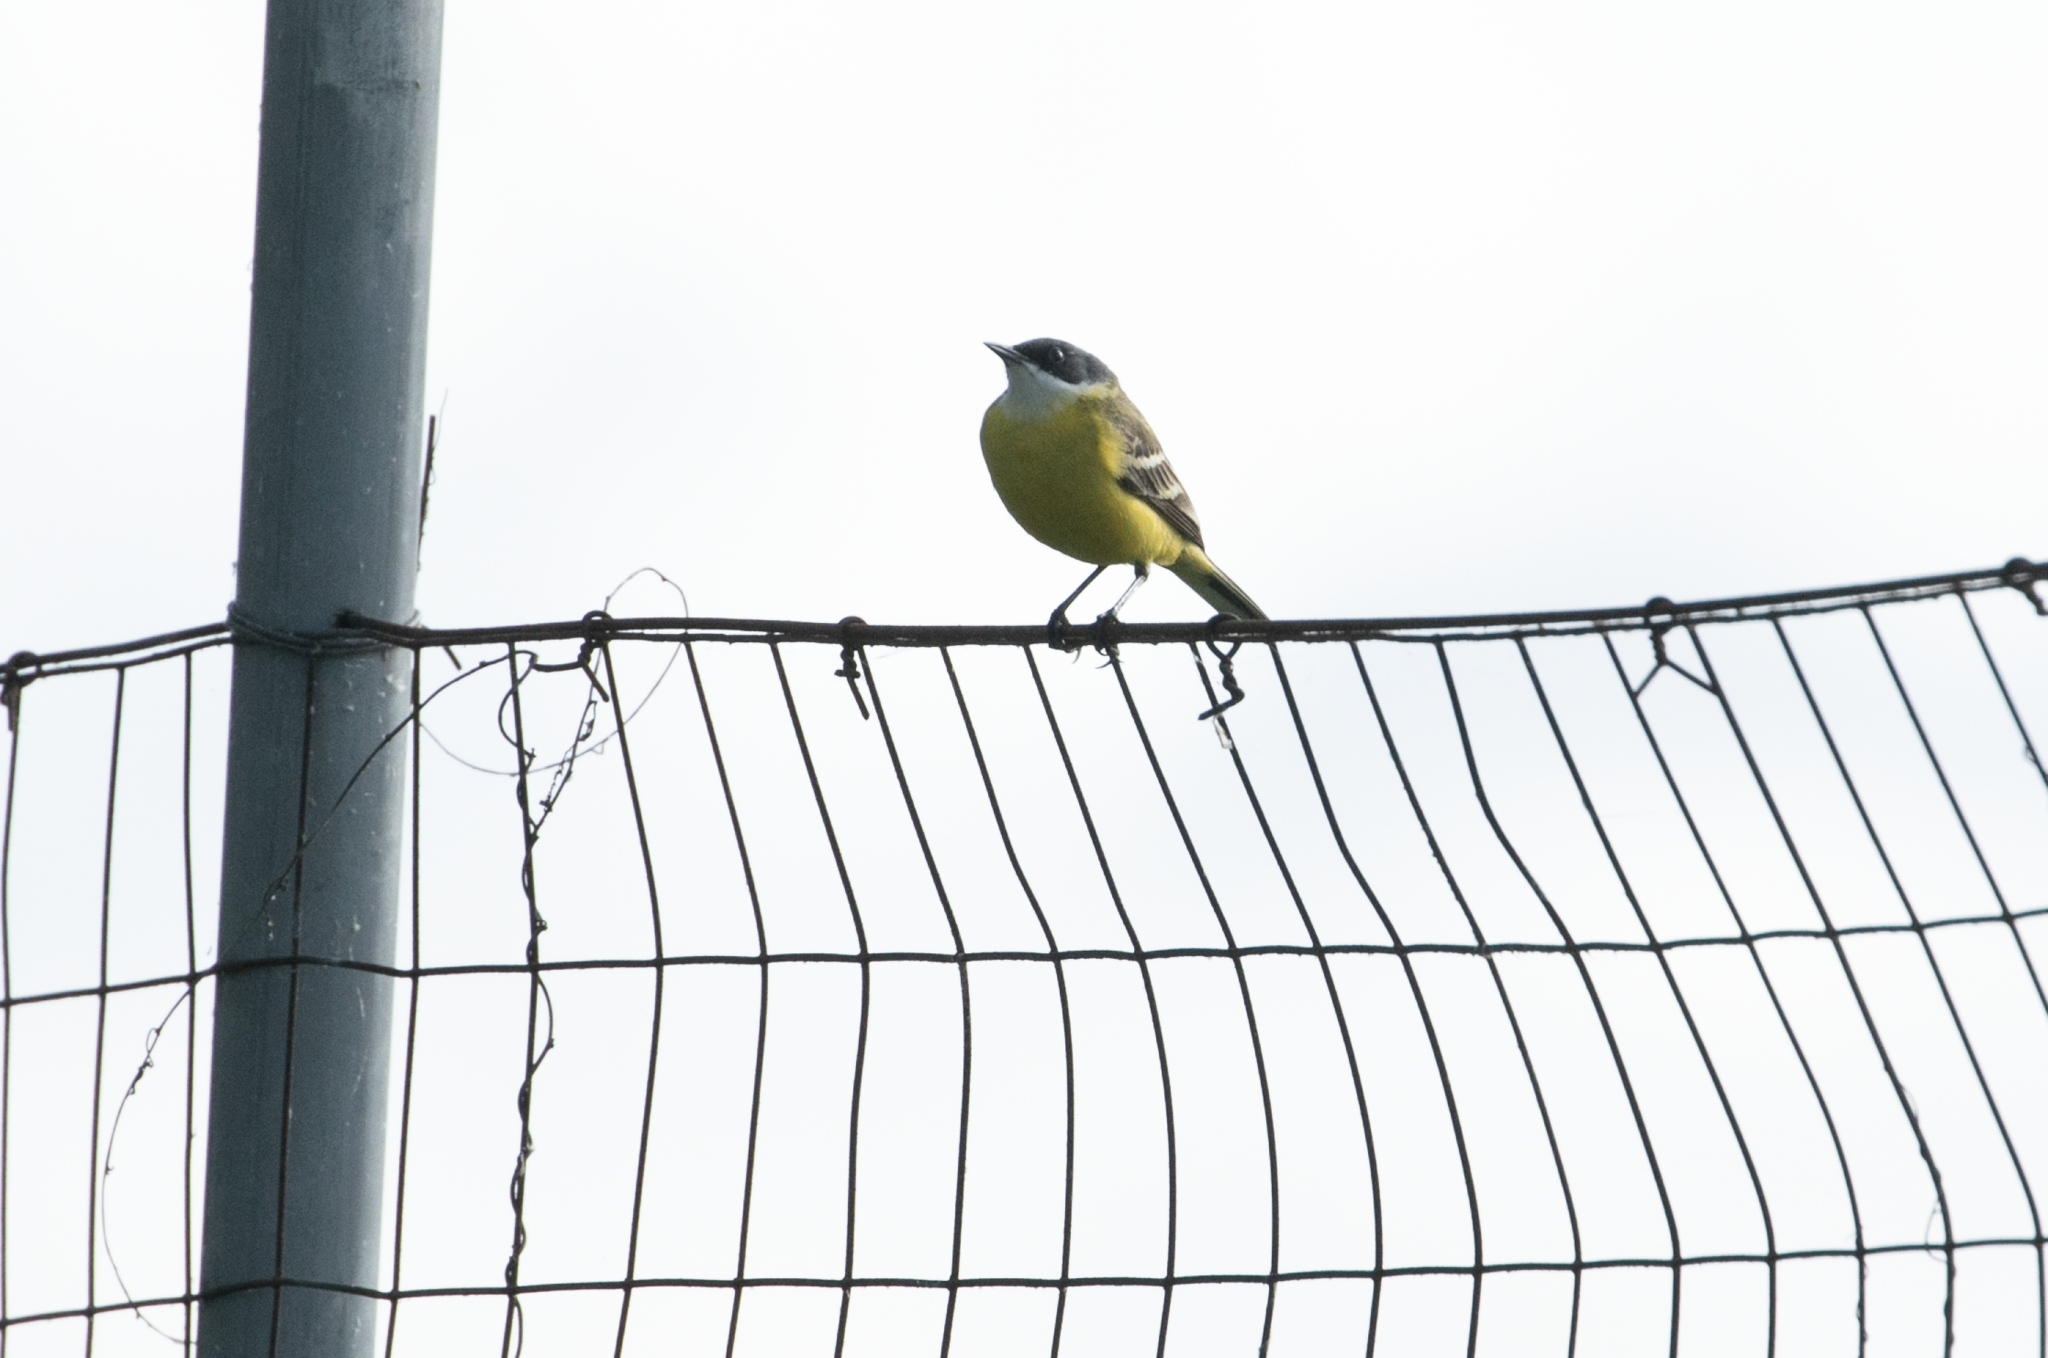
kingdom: Animalia
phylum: Chordata
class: Aves
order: Passeriformes
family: Motacillidae
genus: Motacilla
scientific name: Motacilla flava
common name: Western yellow wagtail
